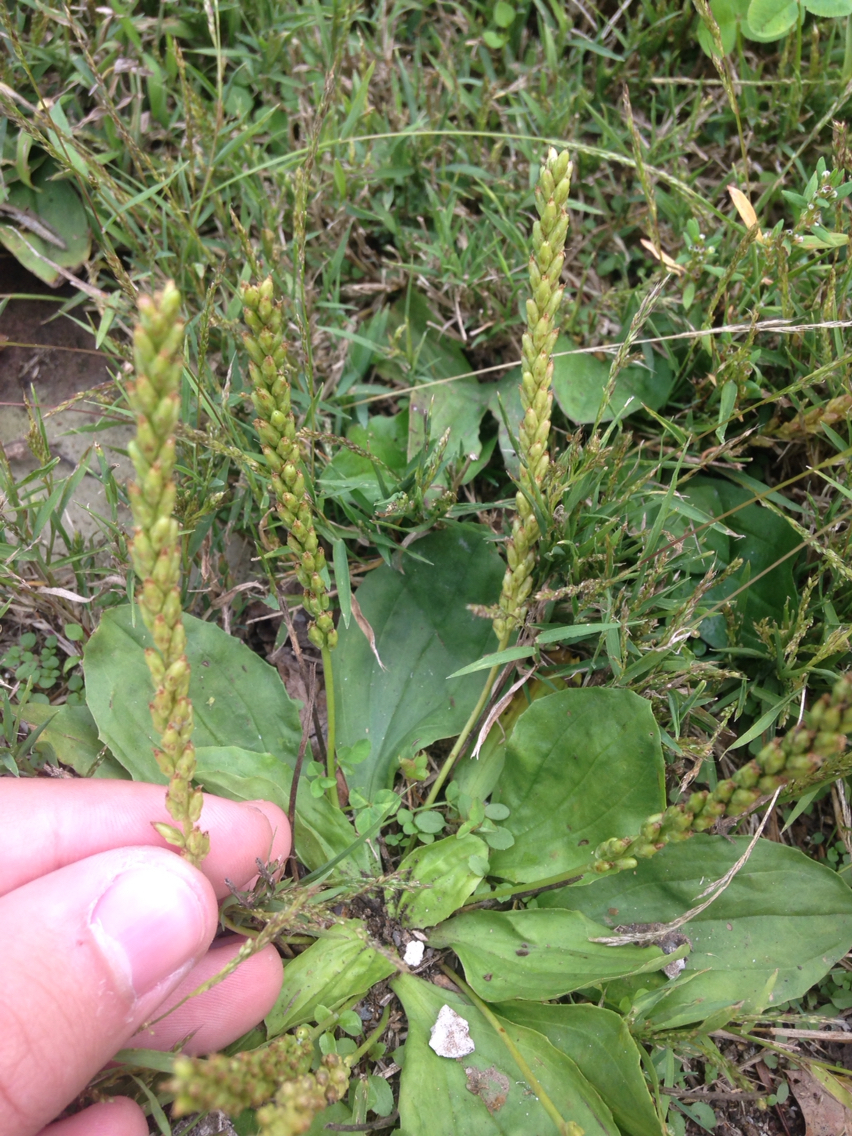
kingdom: Plantae
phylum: Tracheophyta
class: Magnoliopsida
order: Lamiales
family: Plantaginaceae
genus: Plantago
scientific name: Plantago major
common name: Common plantain
